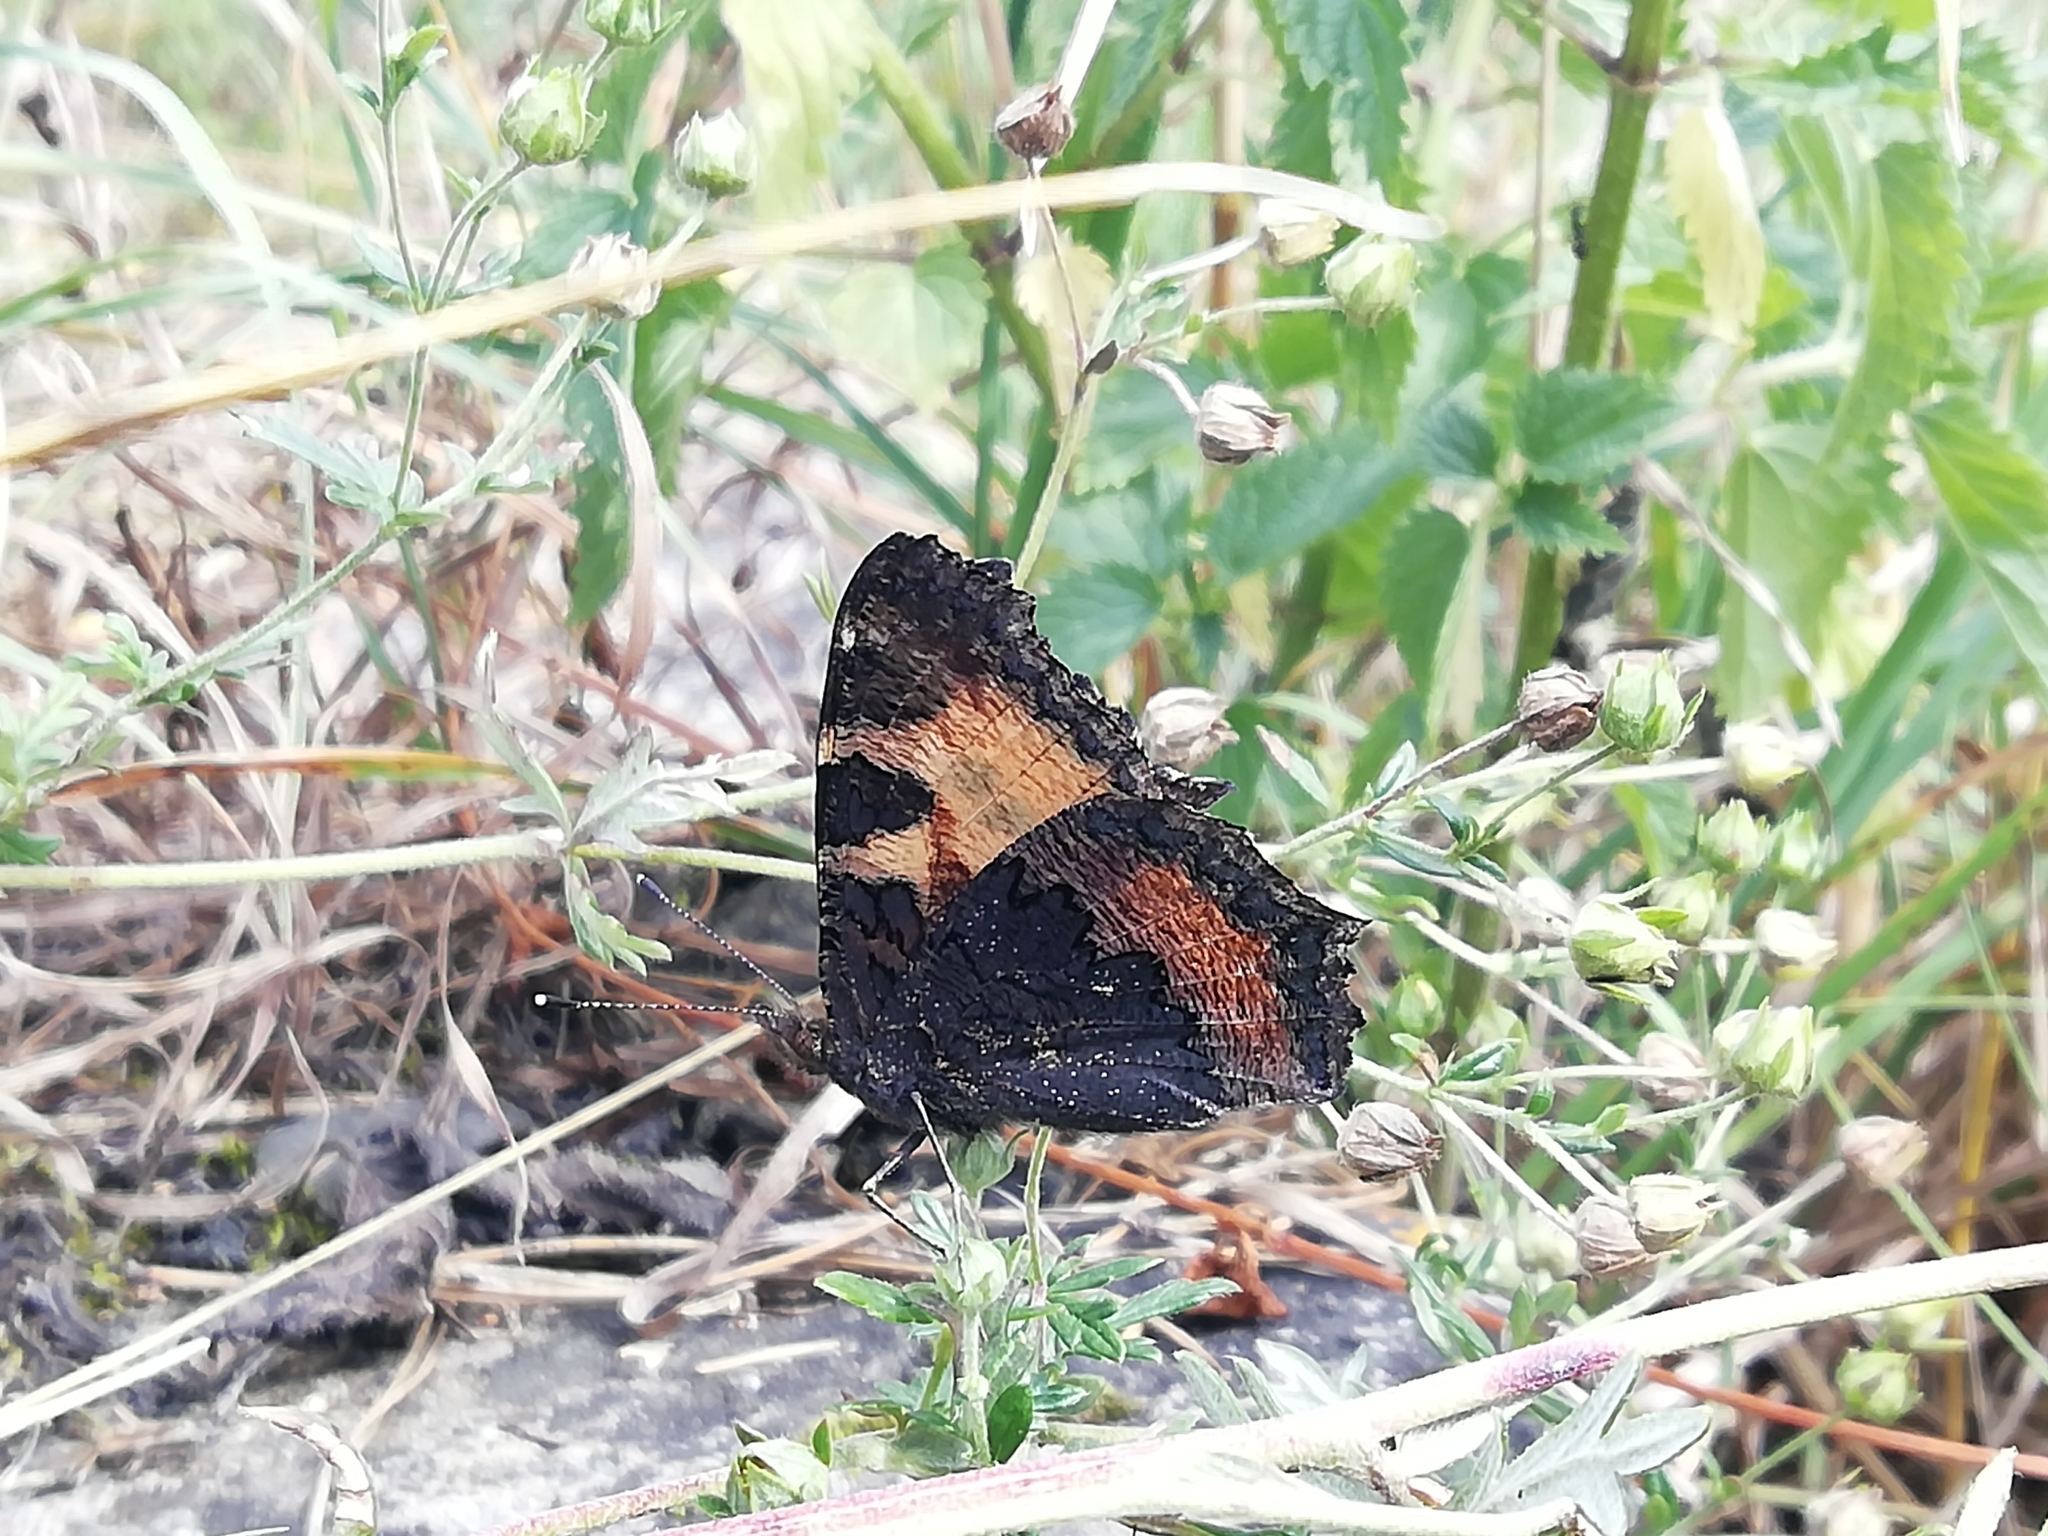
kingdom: Animalia
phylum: Arthropoda
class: Insecta
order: Lepidoptera
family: Nymphalidae
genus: Aglais
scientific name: Aglais urticae
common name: Small tortoiseshell
